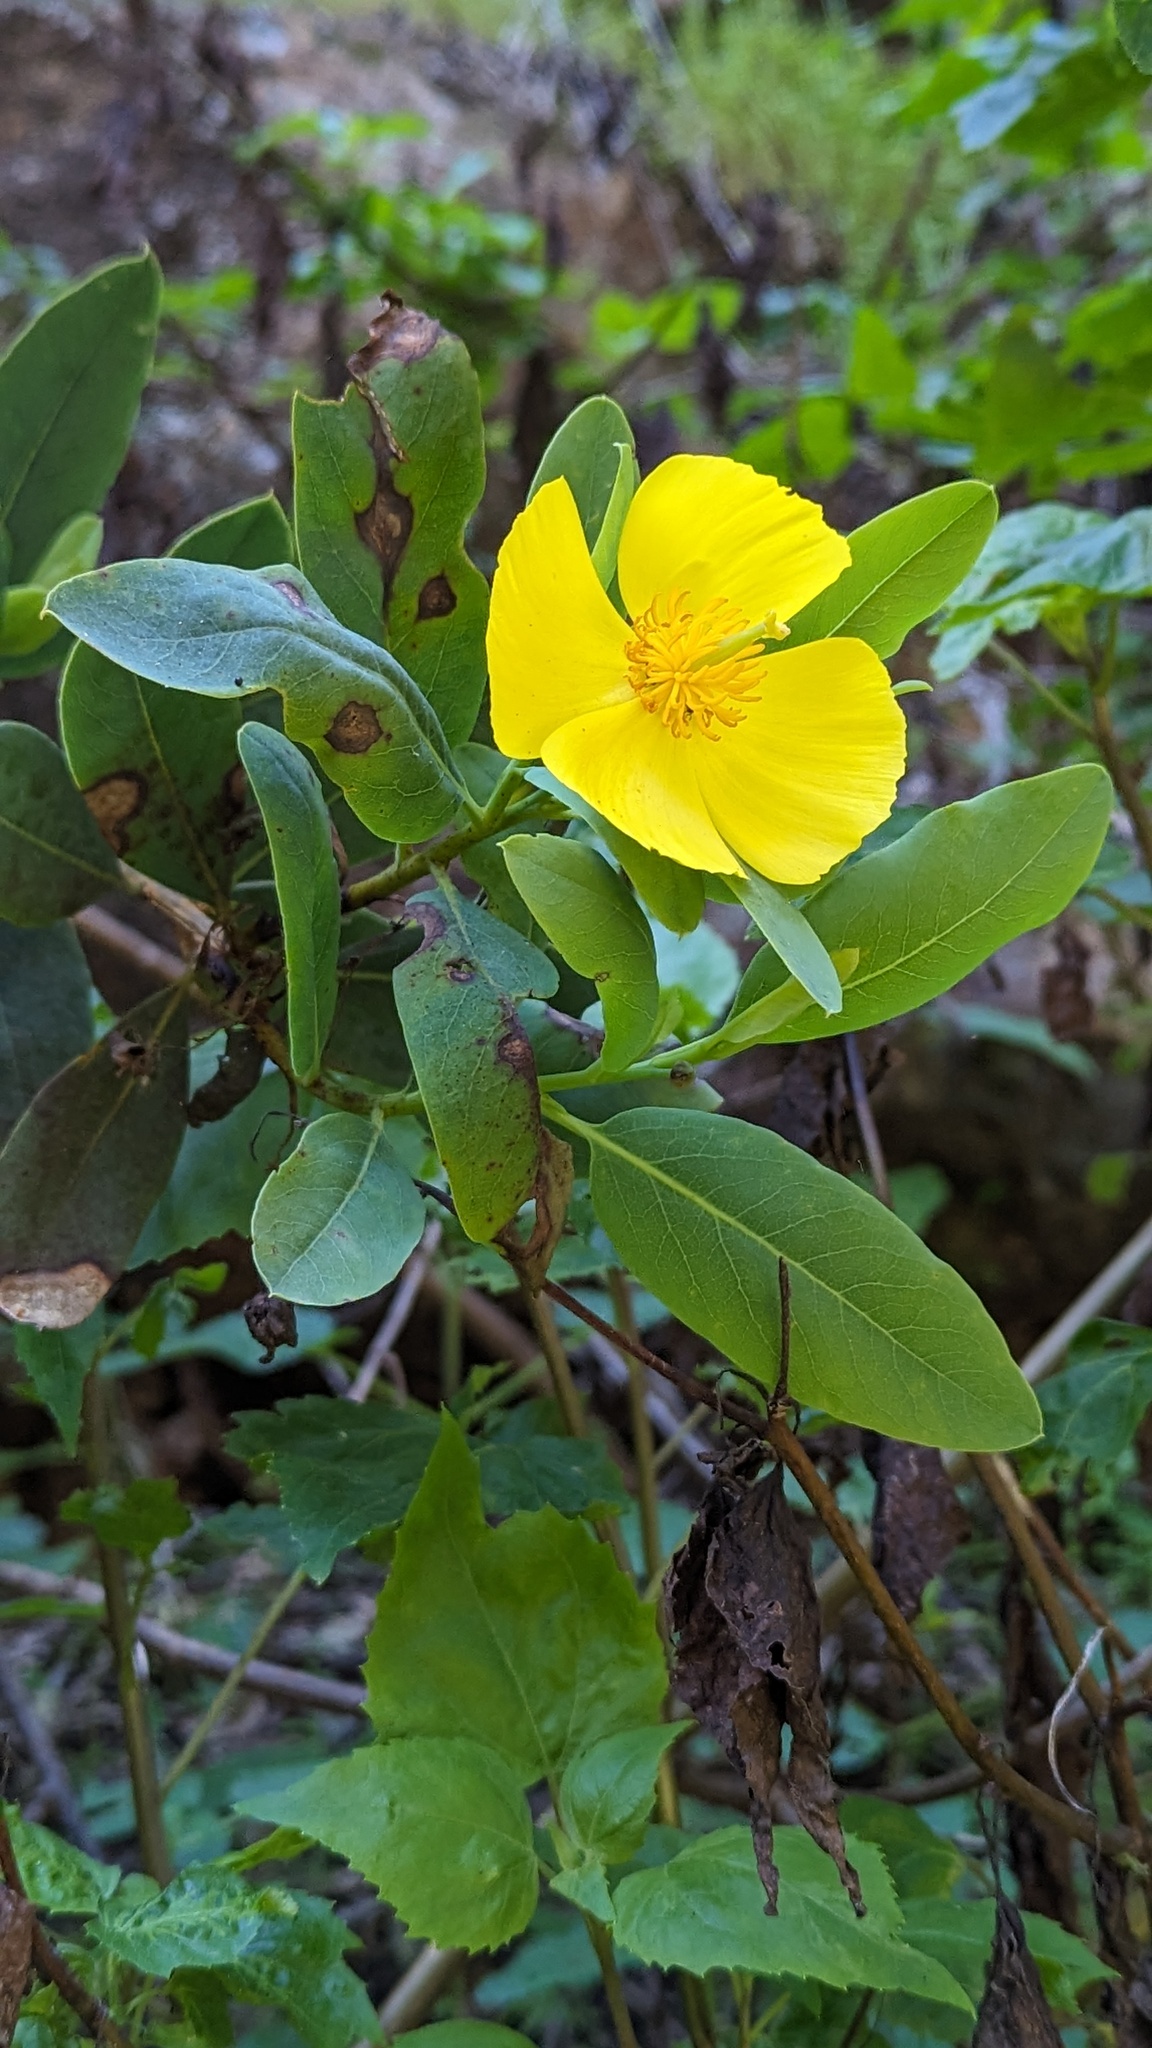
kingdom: Plantae
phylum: Tracheophyta
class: Magnoliopsida
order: Ranunculales
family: Papaveraceae
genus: Dendromecon
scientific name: Dendromecon harfordii
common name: Island tree-poppy
